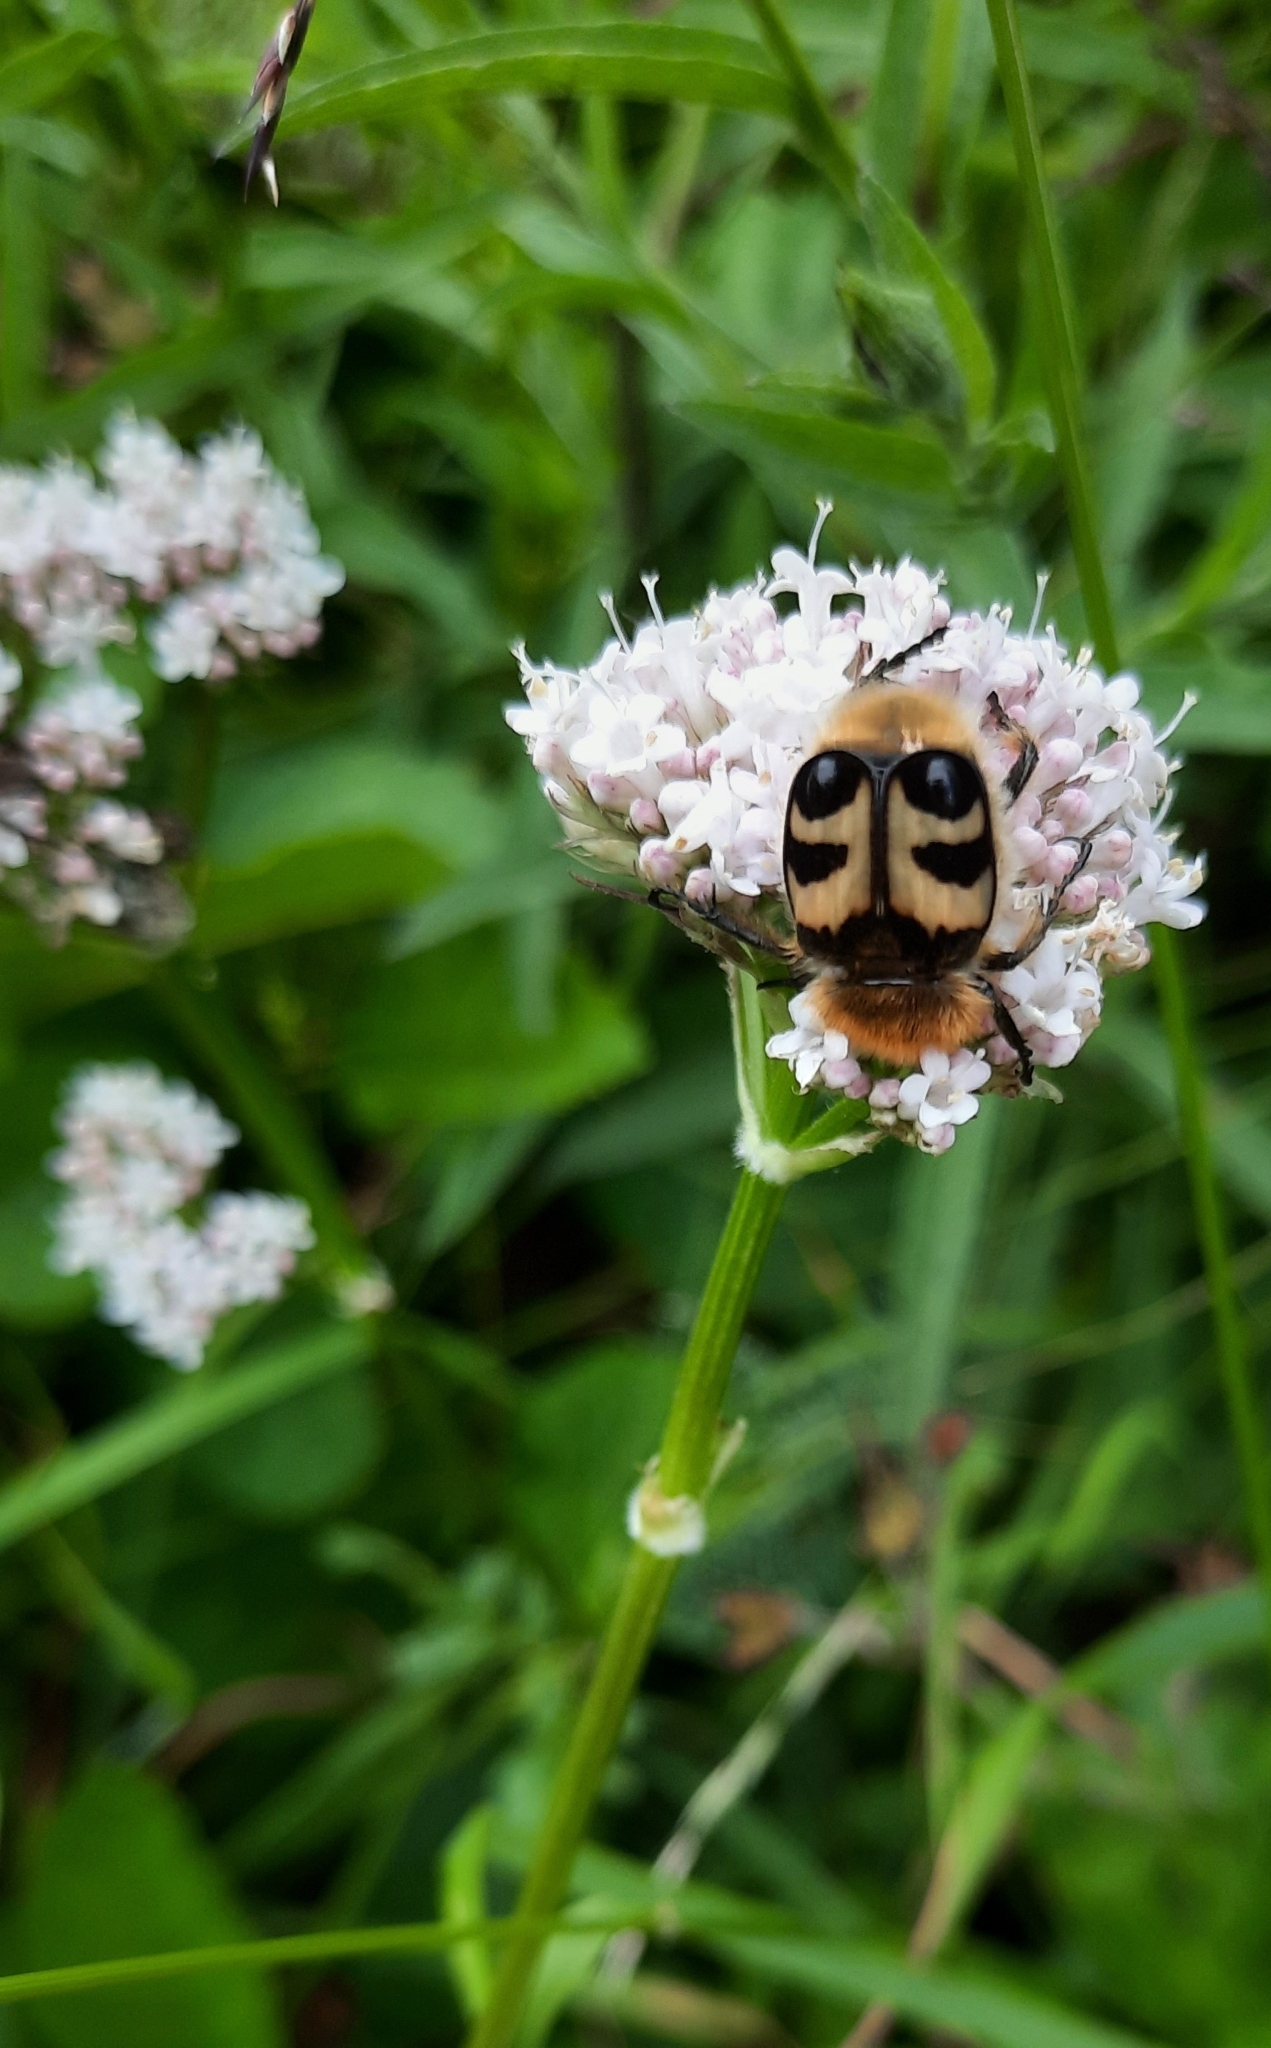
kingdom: Animalia
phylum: Arthropoda
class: Insecta
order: Coleoptera
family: Scarabaeidae
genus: Trichius
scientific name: Trichius fasciatus
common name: Bee beetle
